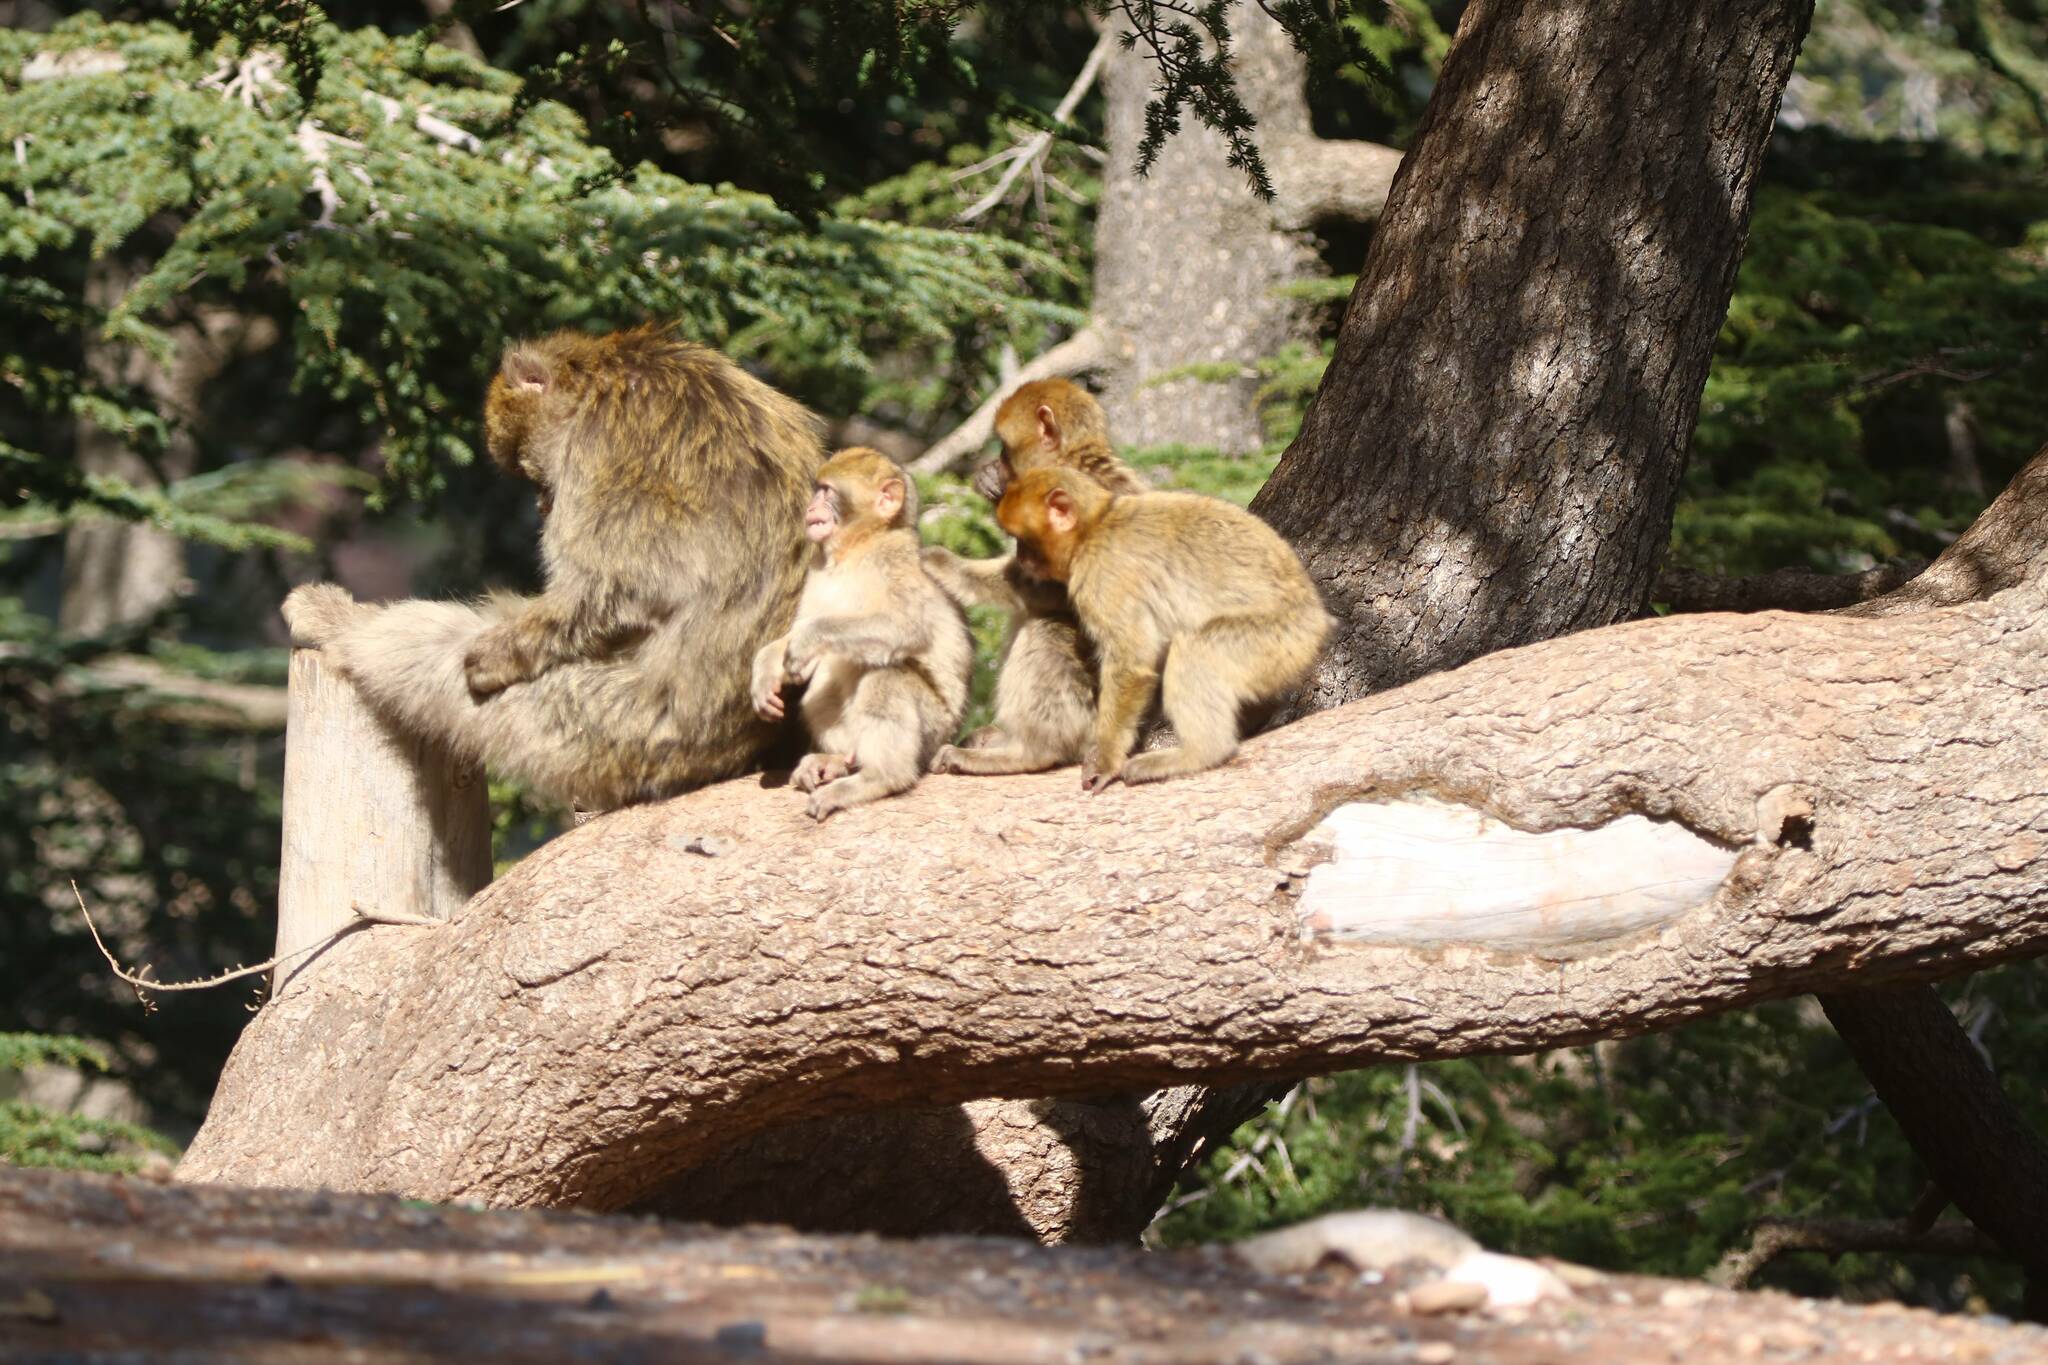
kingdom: Animalia
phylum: Chordata
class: Mammalia
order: Primates
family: Cercopithecidae
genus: Macaca
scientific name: Macaca sylvanus
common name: Barbary macaque
